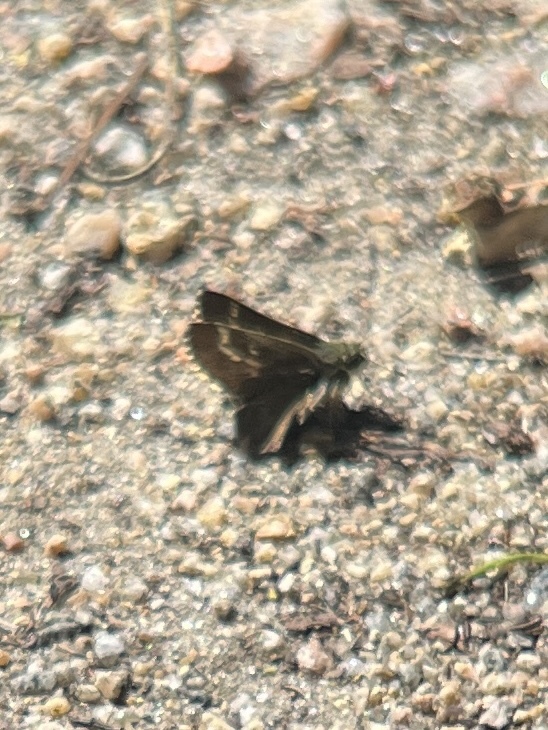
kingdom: Animalia
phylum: Arthropoda
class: Insecta
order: Lepidoptera
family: Hesperiidae
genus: Mastor
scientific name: Mastor aesculapius
